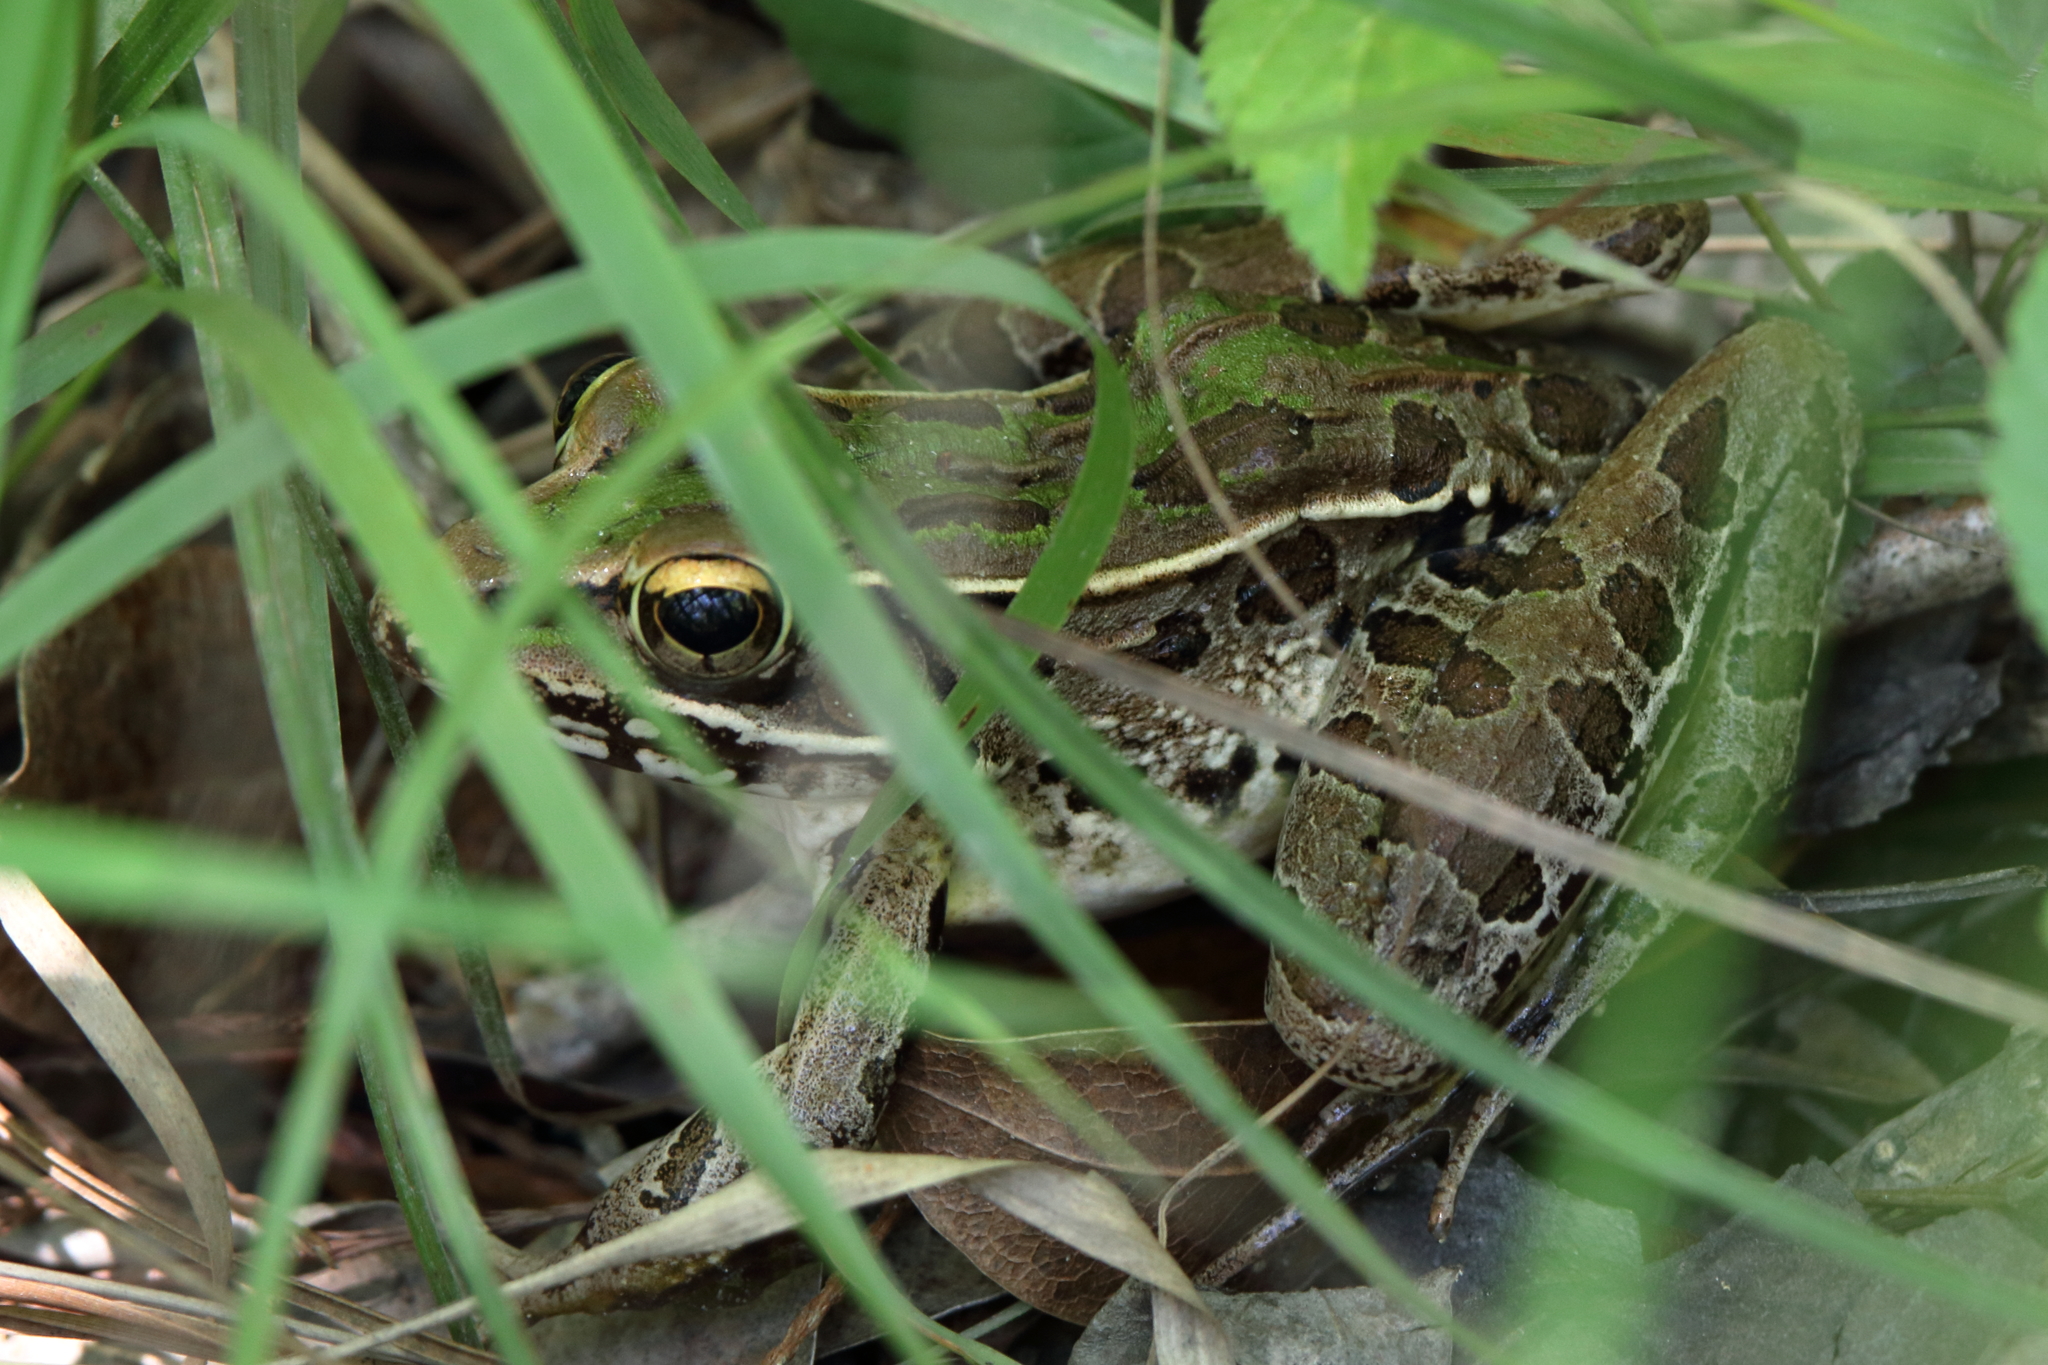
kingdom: Animalia
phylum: Chordata
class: Amphibia
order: Anura
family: Ranidae
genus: Lithobates
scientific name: Lithobates sphenocephalus
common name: Southern leopard frog
